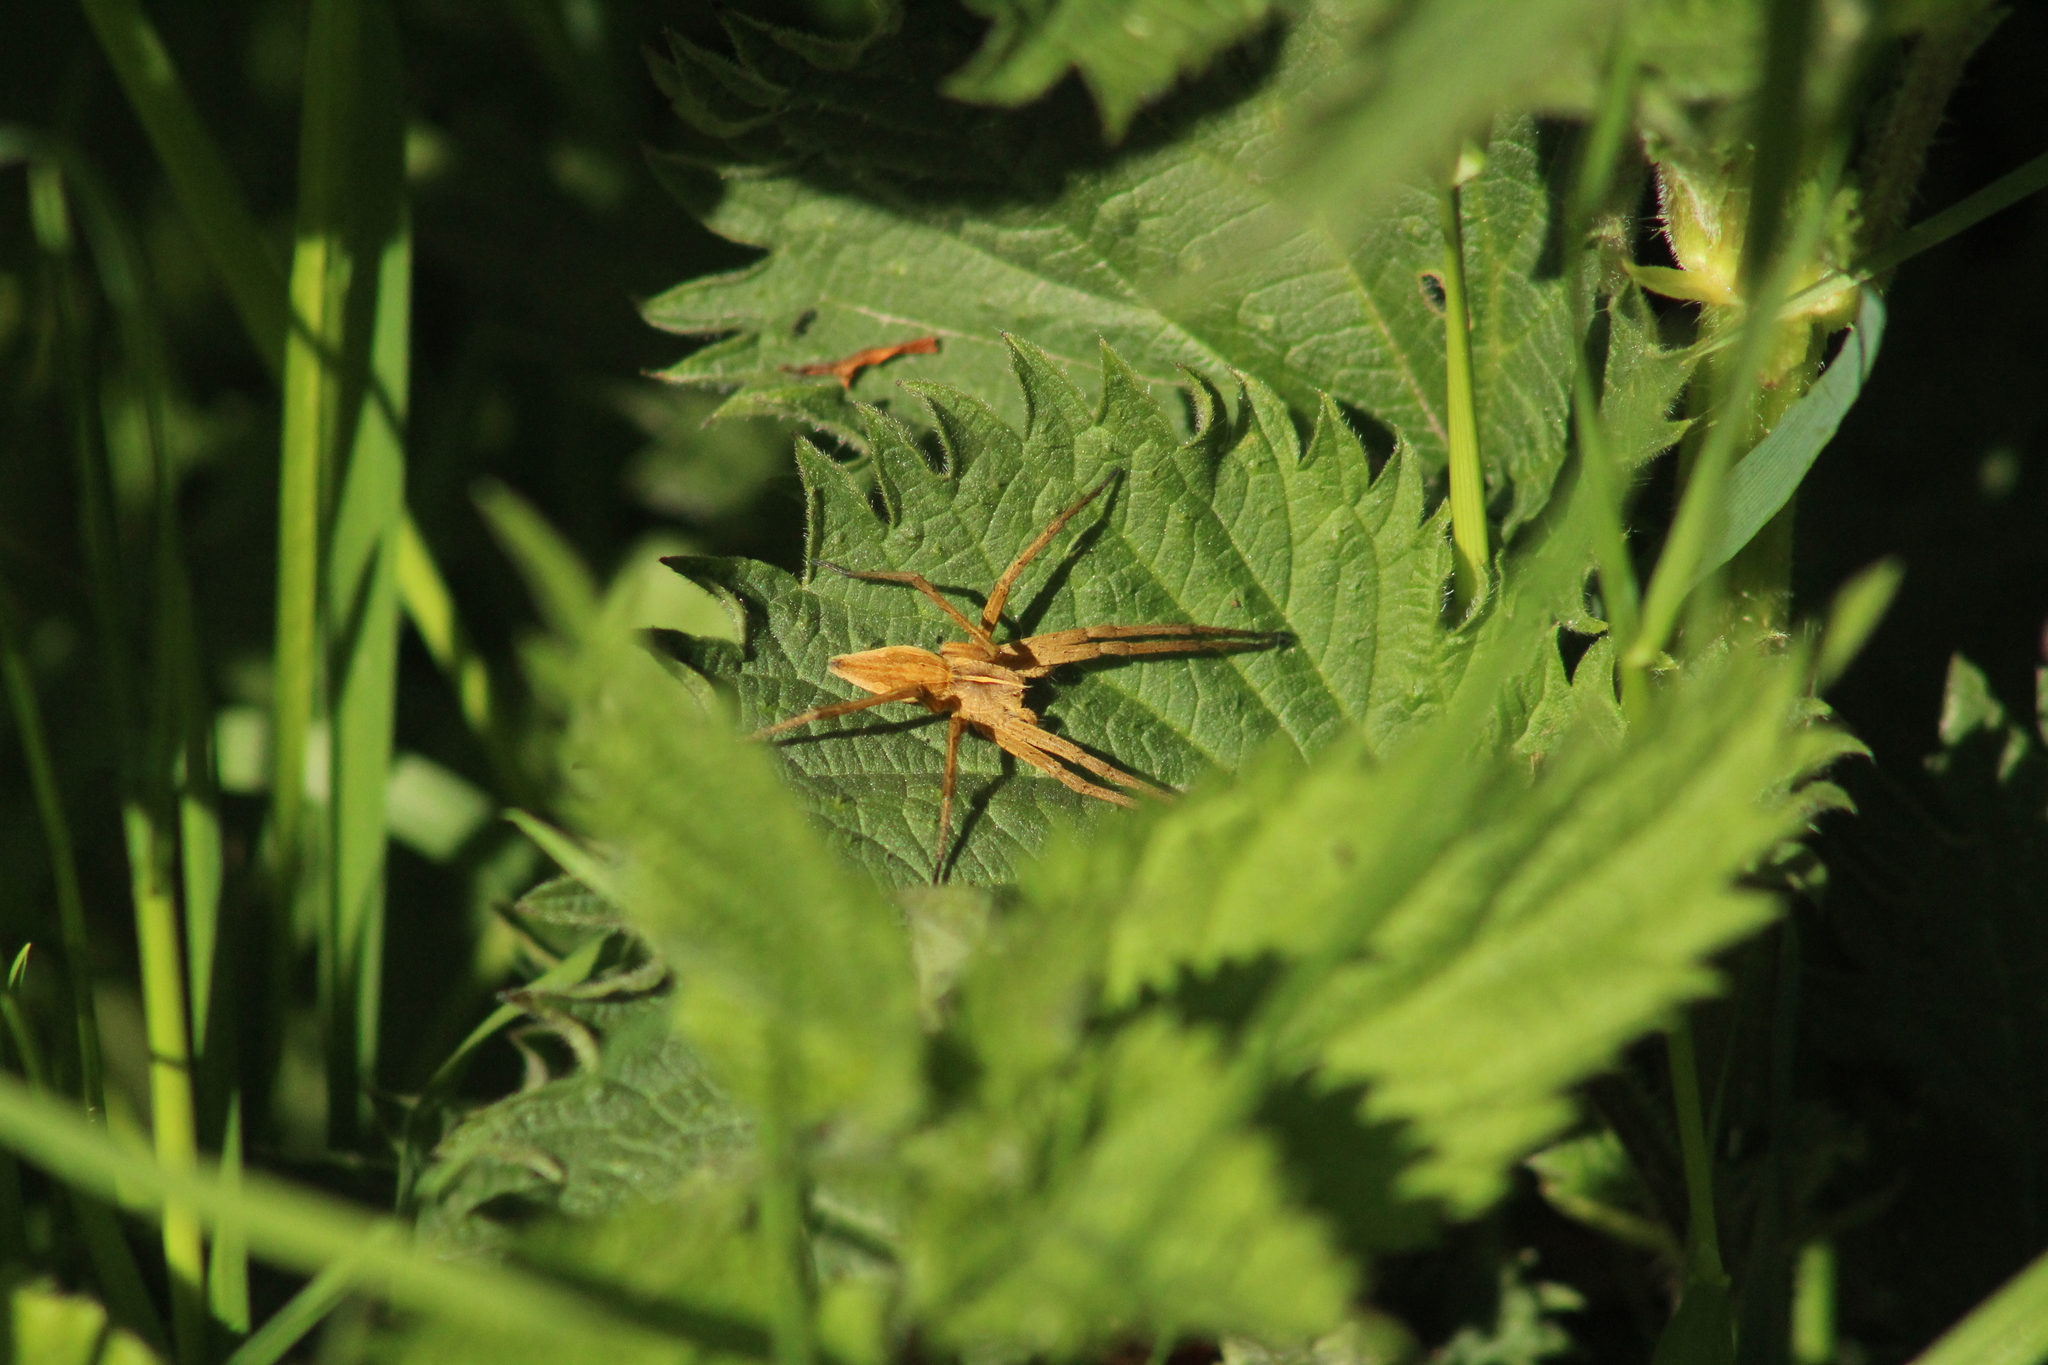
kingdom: Animalia
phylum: Arthropoda
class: Arachnida
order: Araneae
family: Pisauridae
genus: Pisaura
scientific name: Pisaura mirabilis
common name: Tent spider
